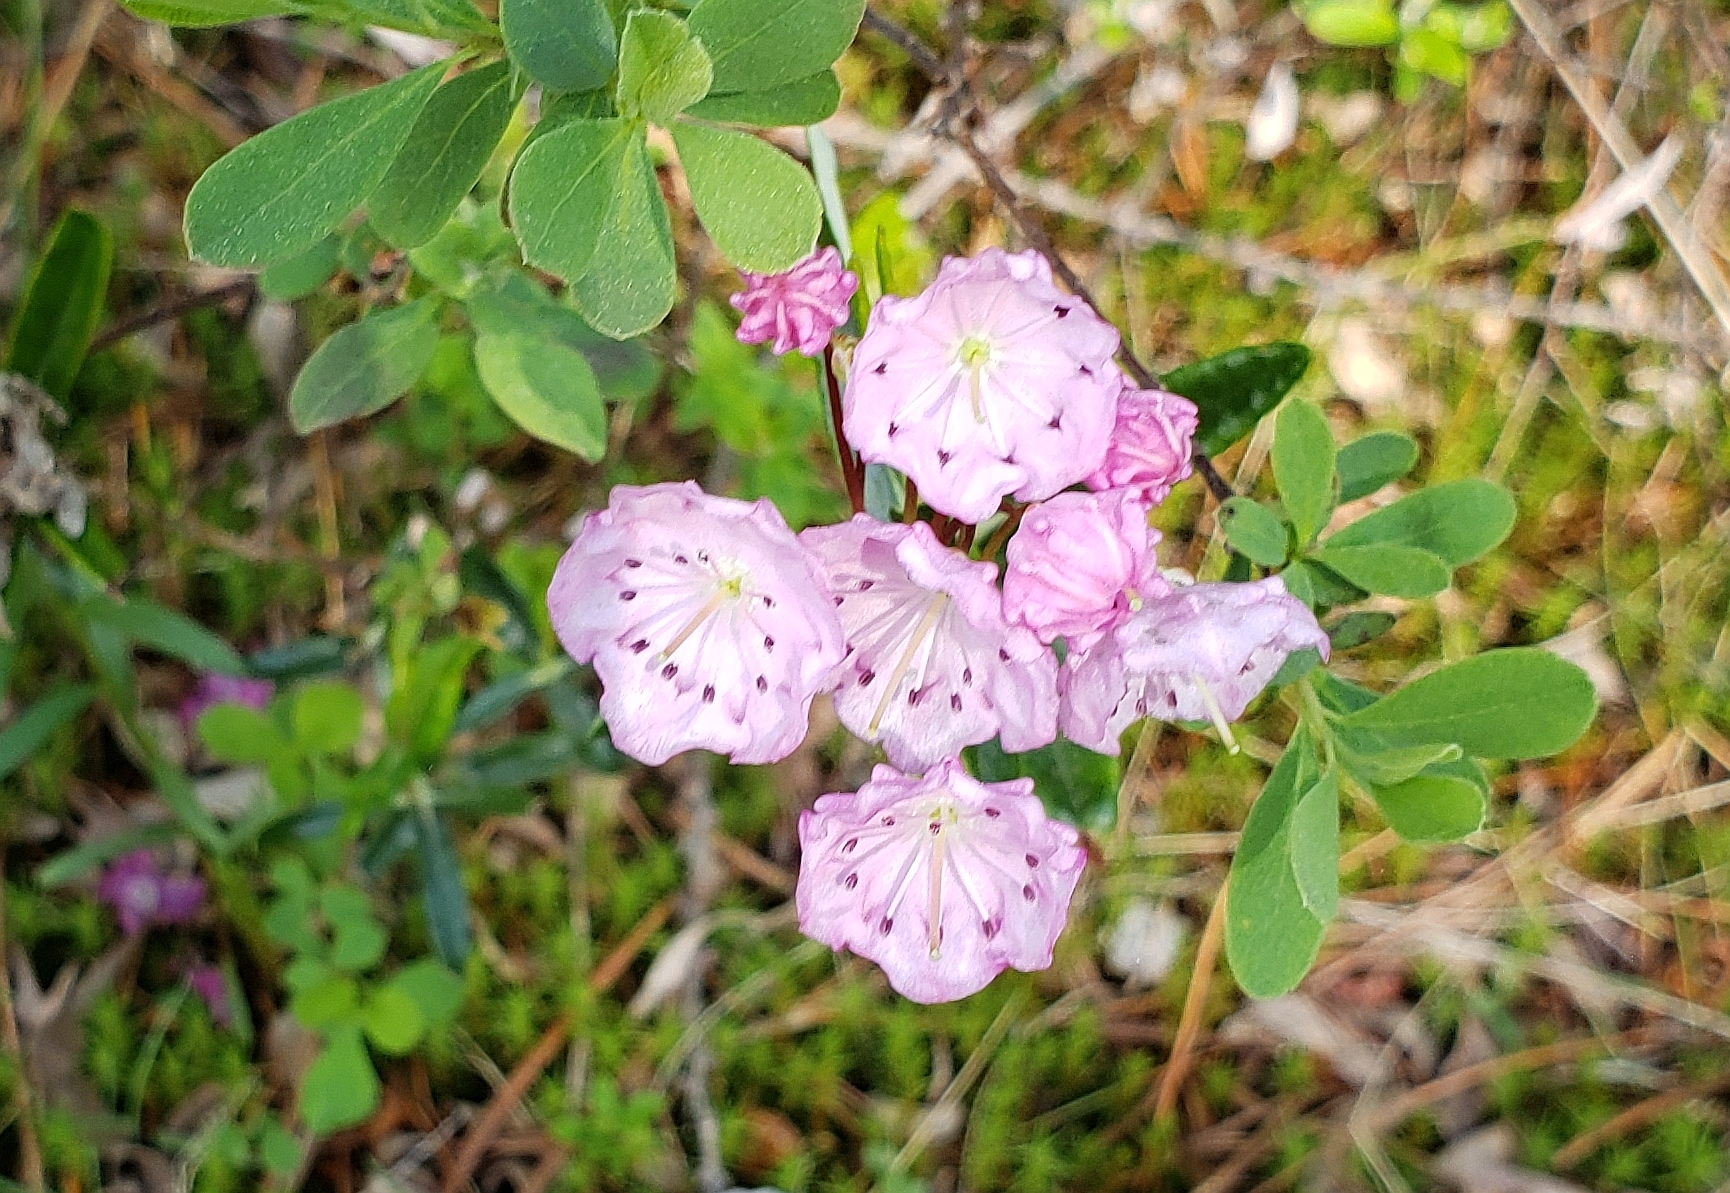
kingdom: Plantae
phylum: Tracheophyta
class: Magnoliopsida
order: Ericales
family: Ericaceae
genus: Kalmia
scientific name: Kalmia polifolia
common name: Bog-laurel
